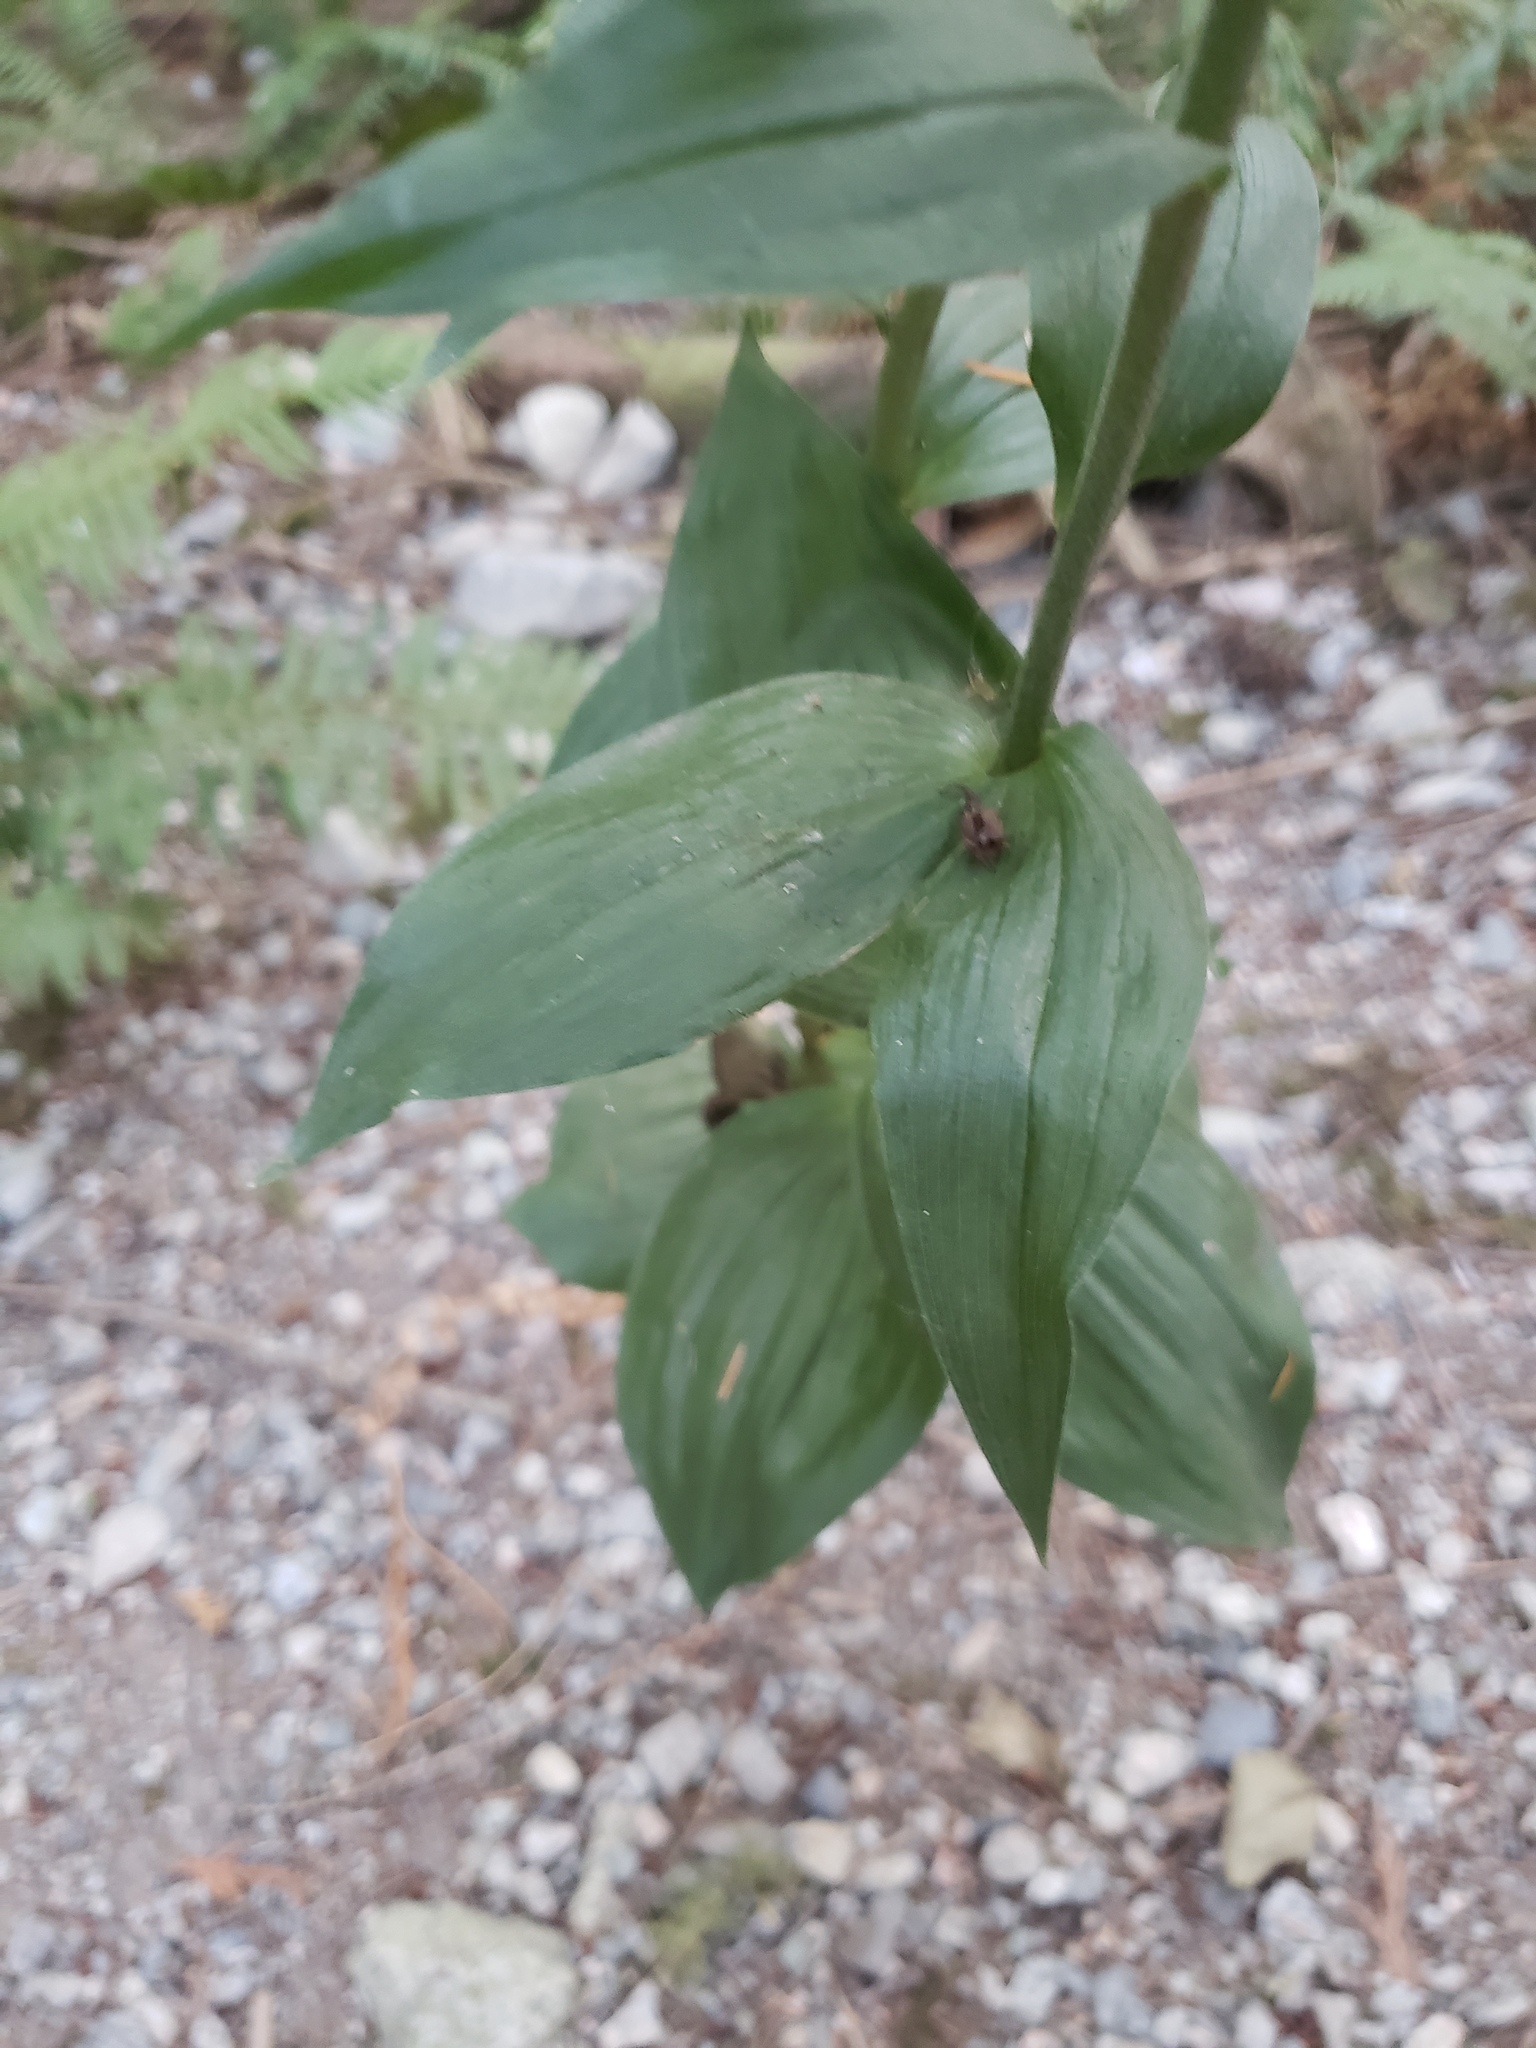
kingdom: Plantae
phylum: Tracheophyta
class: Liliopsida
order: Asparagales
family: Orchidaceae
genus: Epipactis
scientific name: Epipactis helleborine
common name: Broad-leaved helleborine
